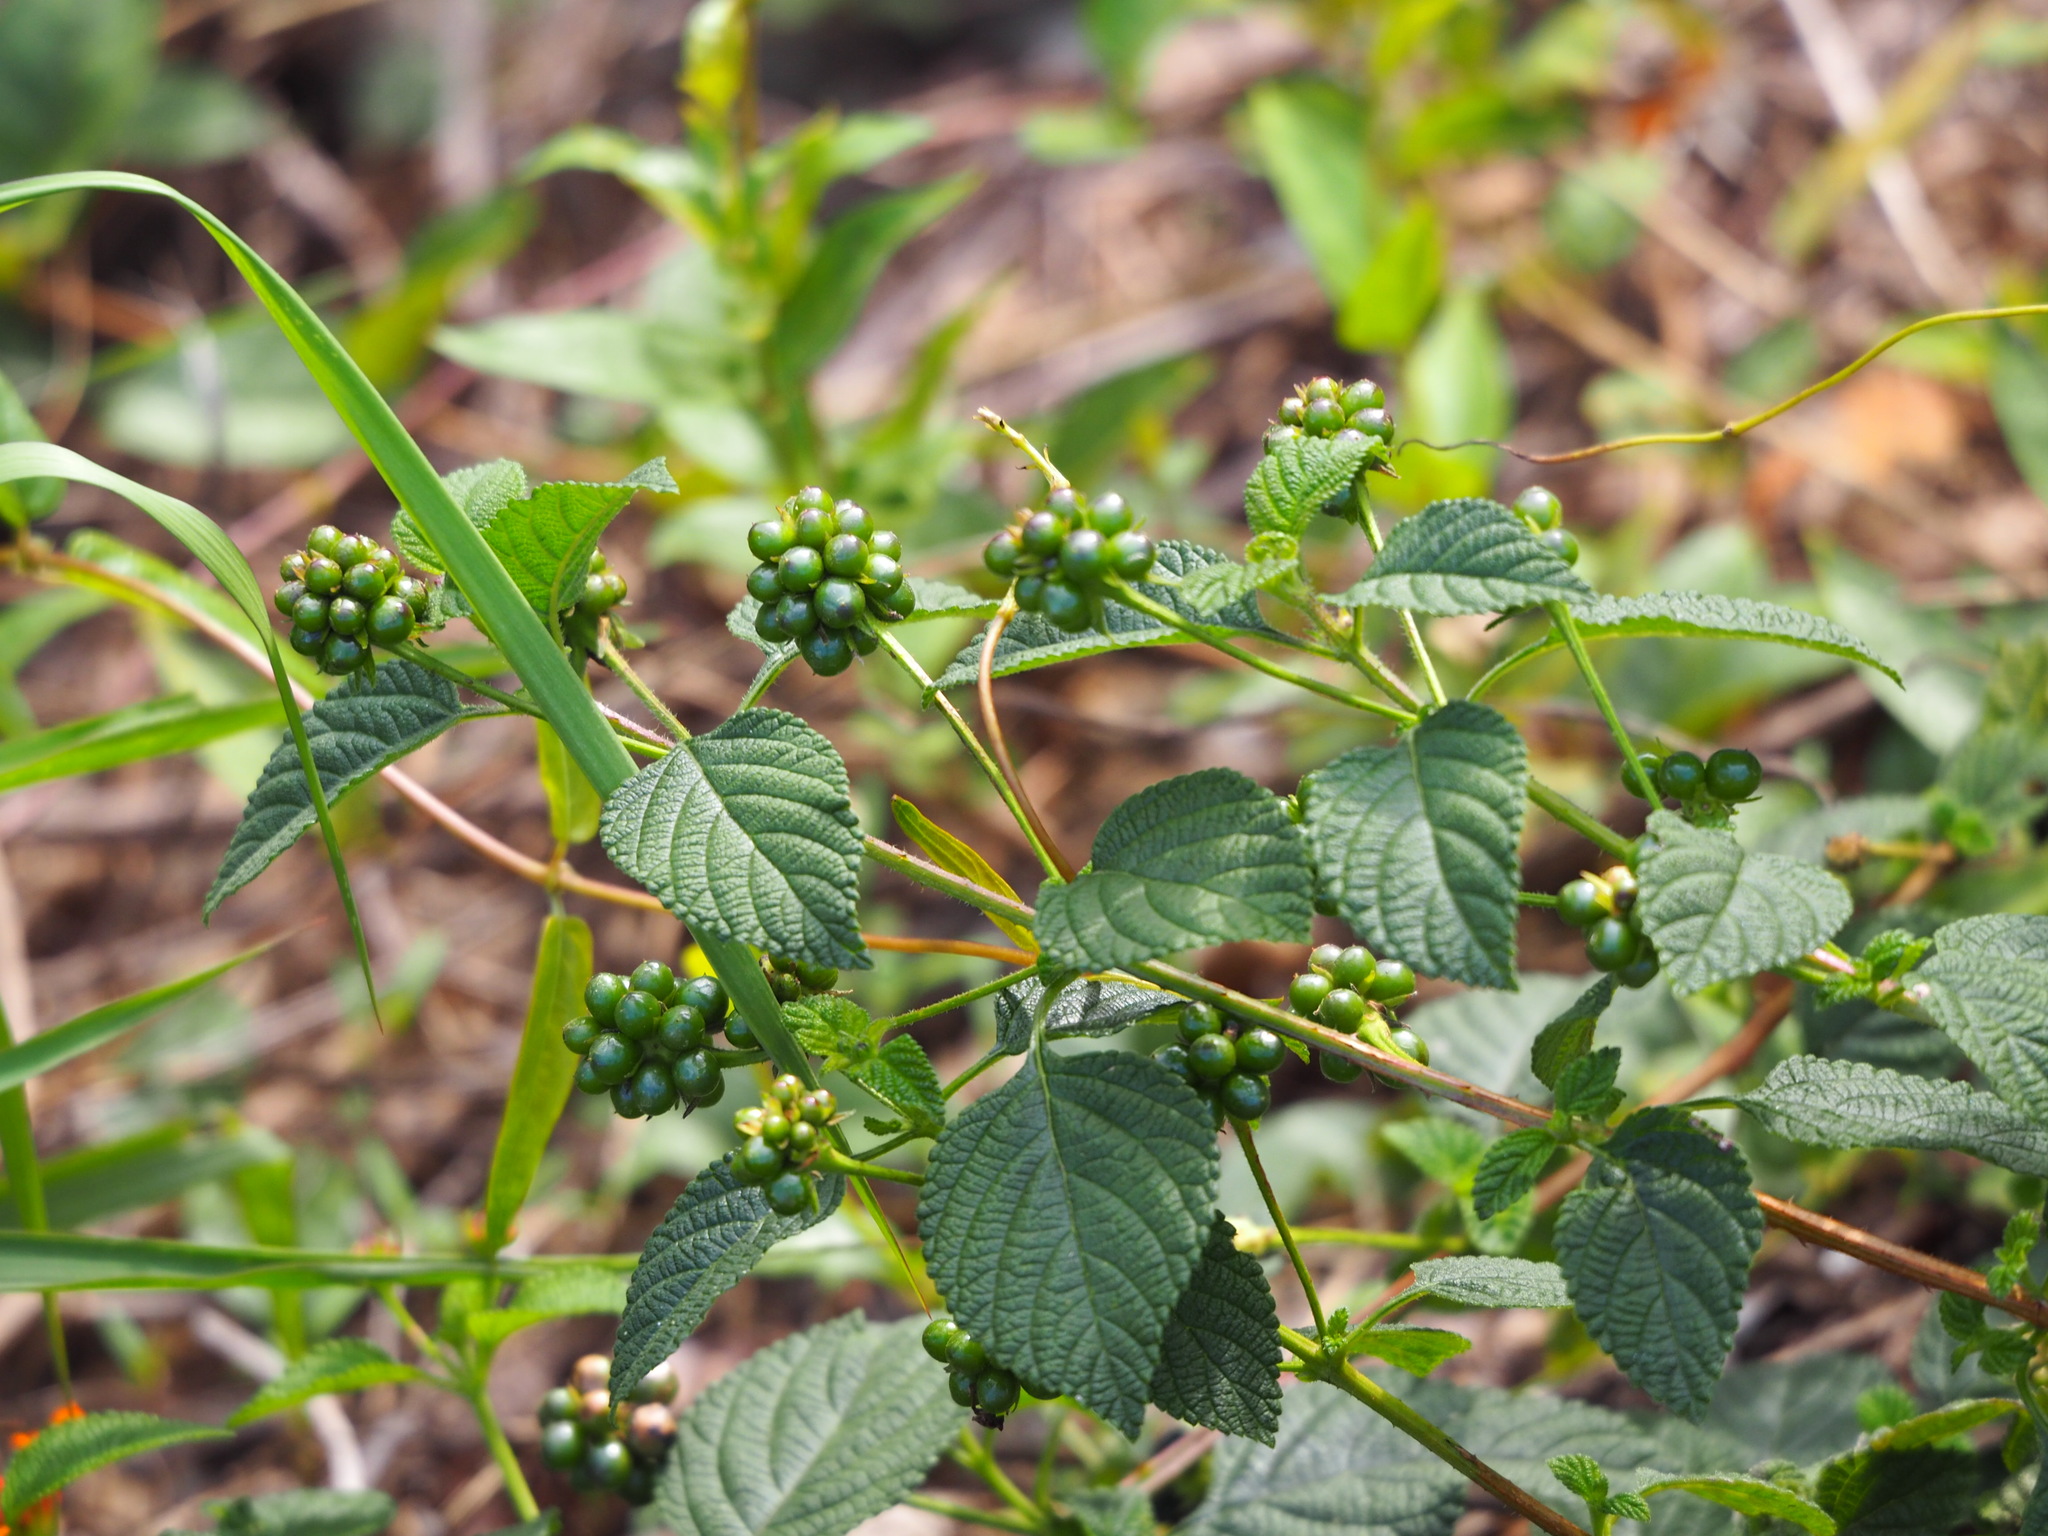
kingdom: Plantae
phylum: Tracheophyta
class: Magnoliopsida
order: Lamiales
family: Verbenaceae
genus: Lantana
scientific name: Lantana camara
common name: Lantana
